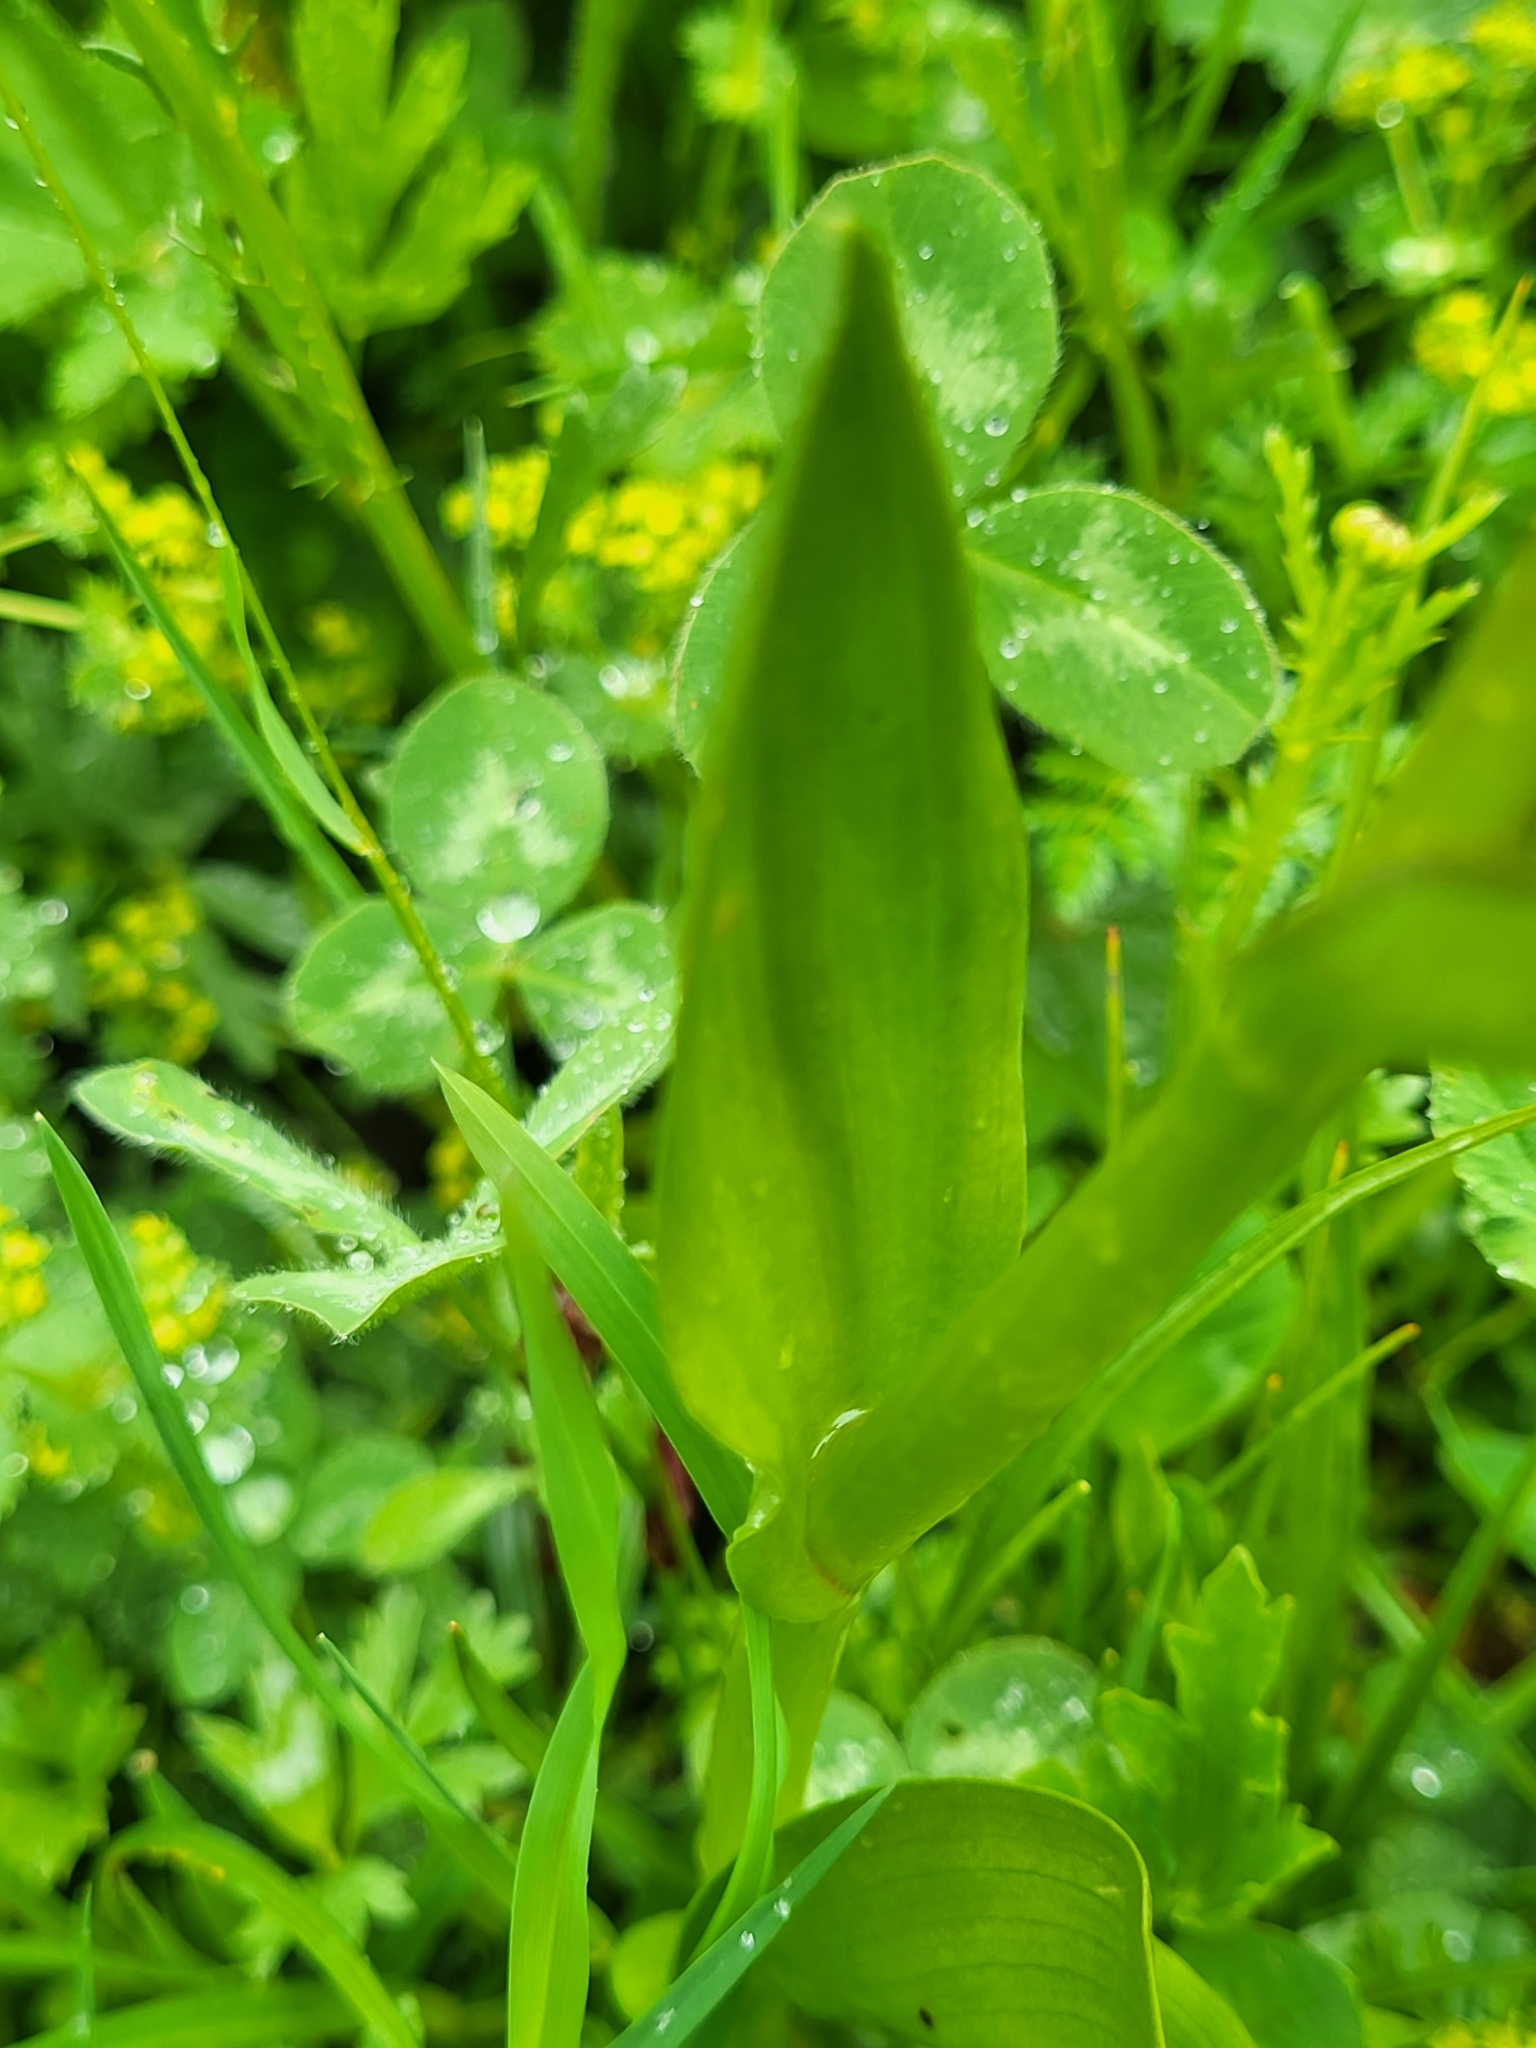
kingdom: Plantae
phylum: Tracheophyta
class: Liliopsida
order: Asparagales
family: Orchidaceae
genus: Dactylorhiza
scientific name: Dactylorhiza euxina
